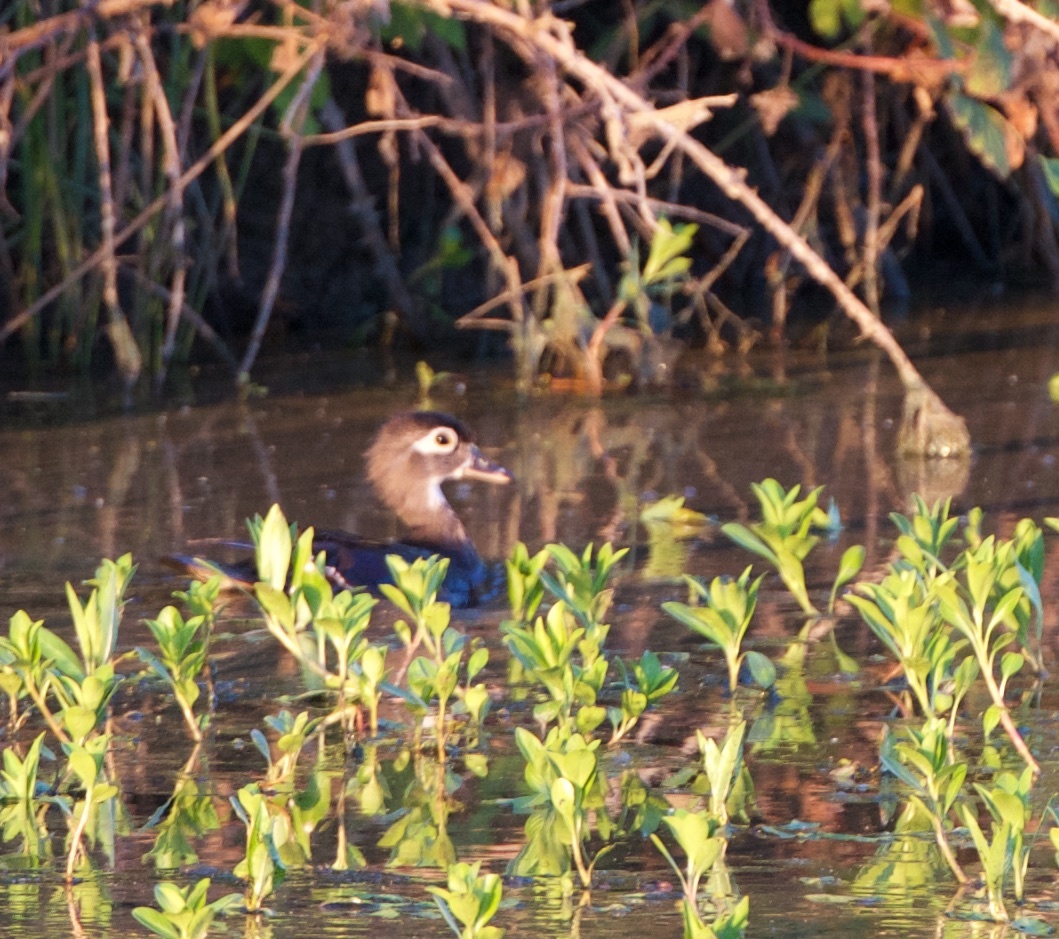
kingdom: Animalia
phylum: Chordata
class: Aves
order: Anseriformes
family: Anatidae
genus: Aix
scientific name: Aix sponsa
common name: Wood duck
